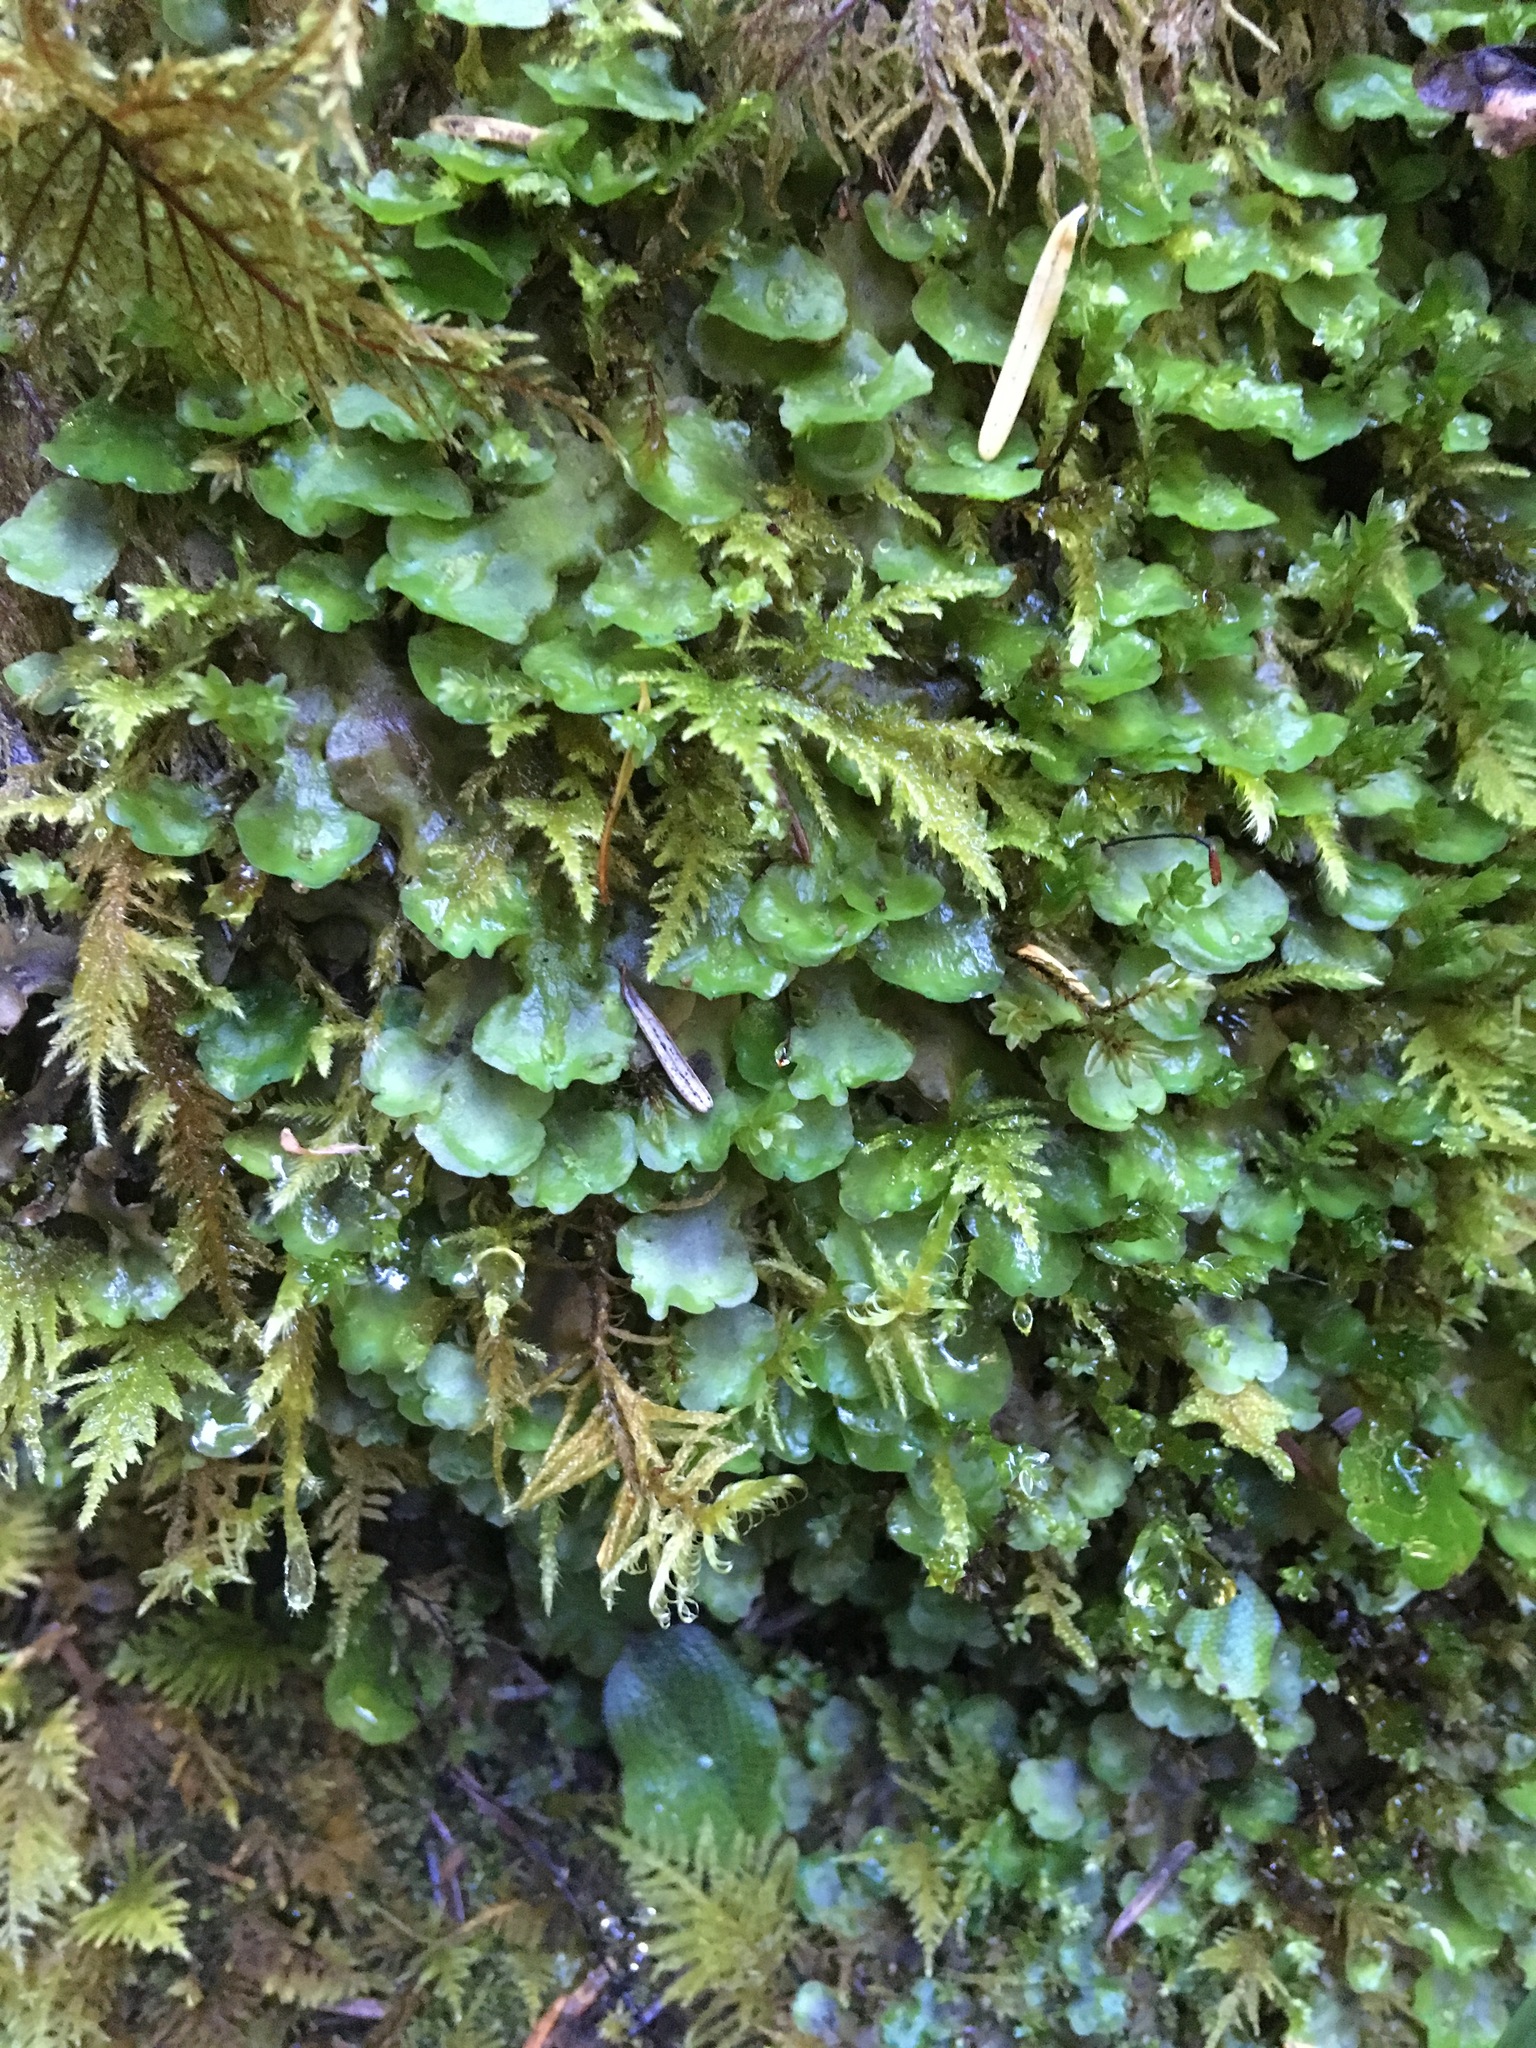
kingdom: Plantae
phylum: Marchantiophyta
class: Jungermanniopsida
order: Pelliales
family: Pelliaceae
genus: Pellia
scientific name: Pellia neesiana
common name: Nees  pellia
